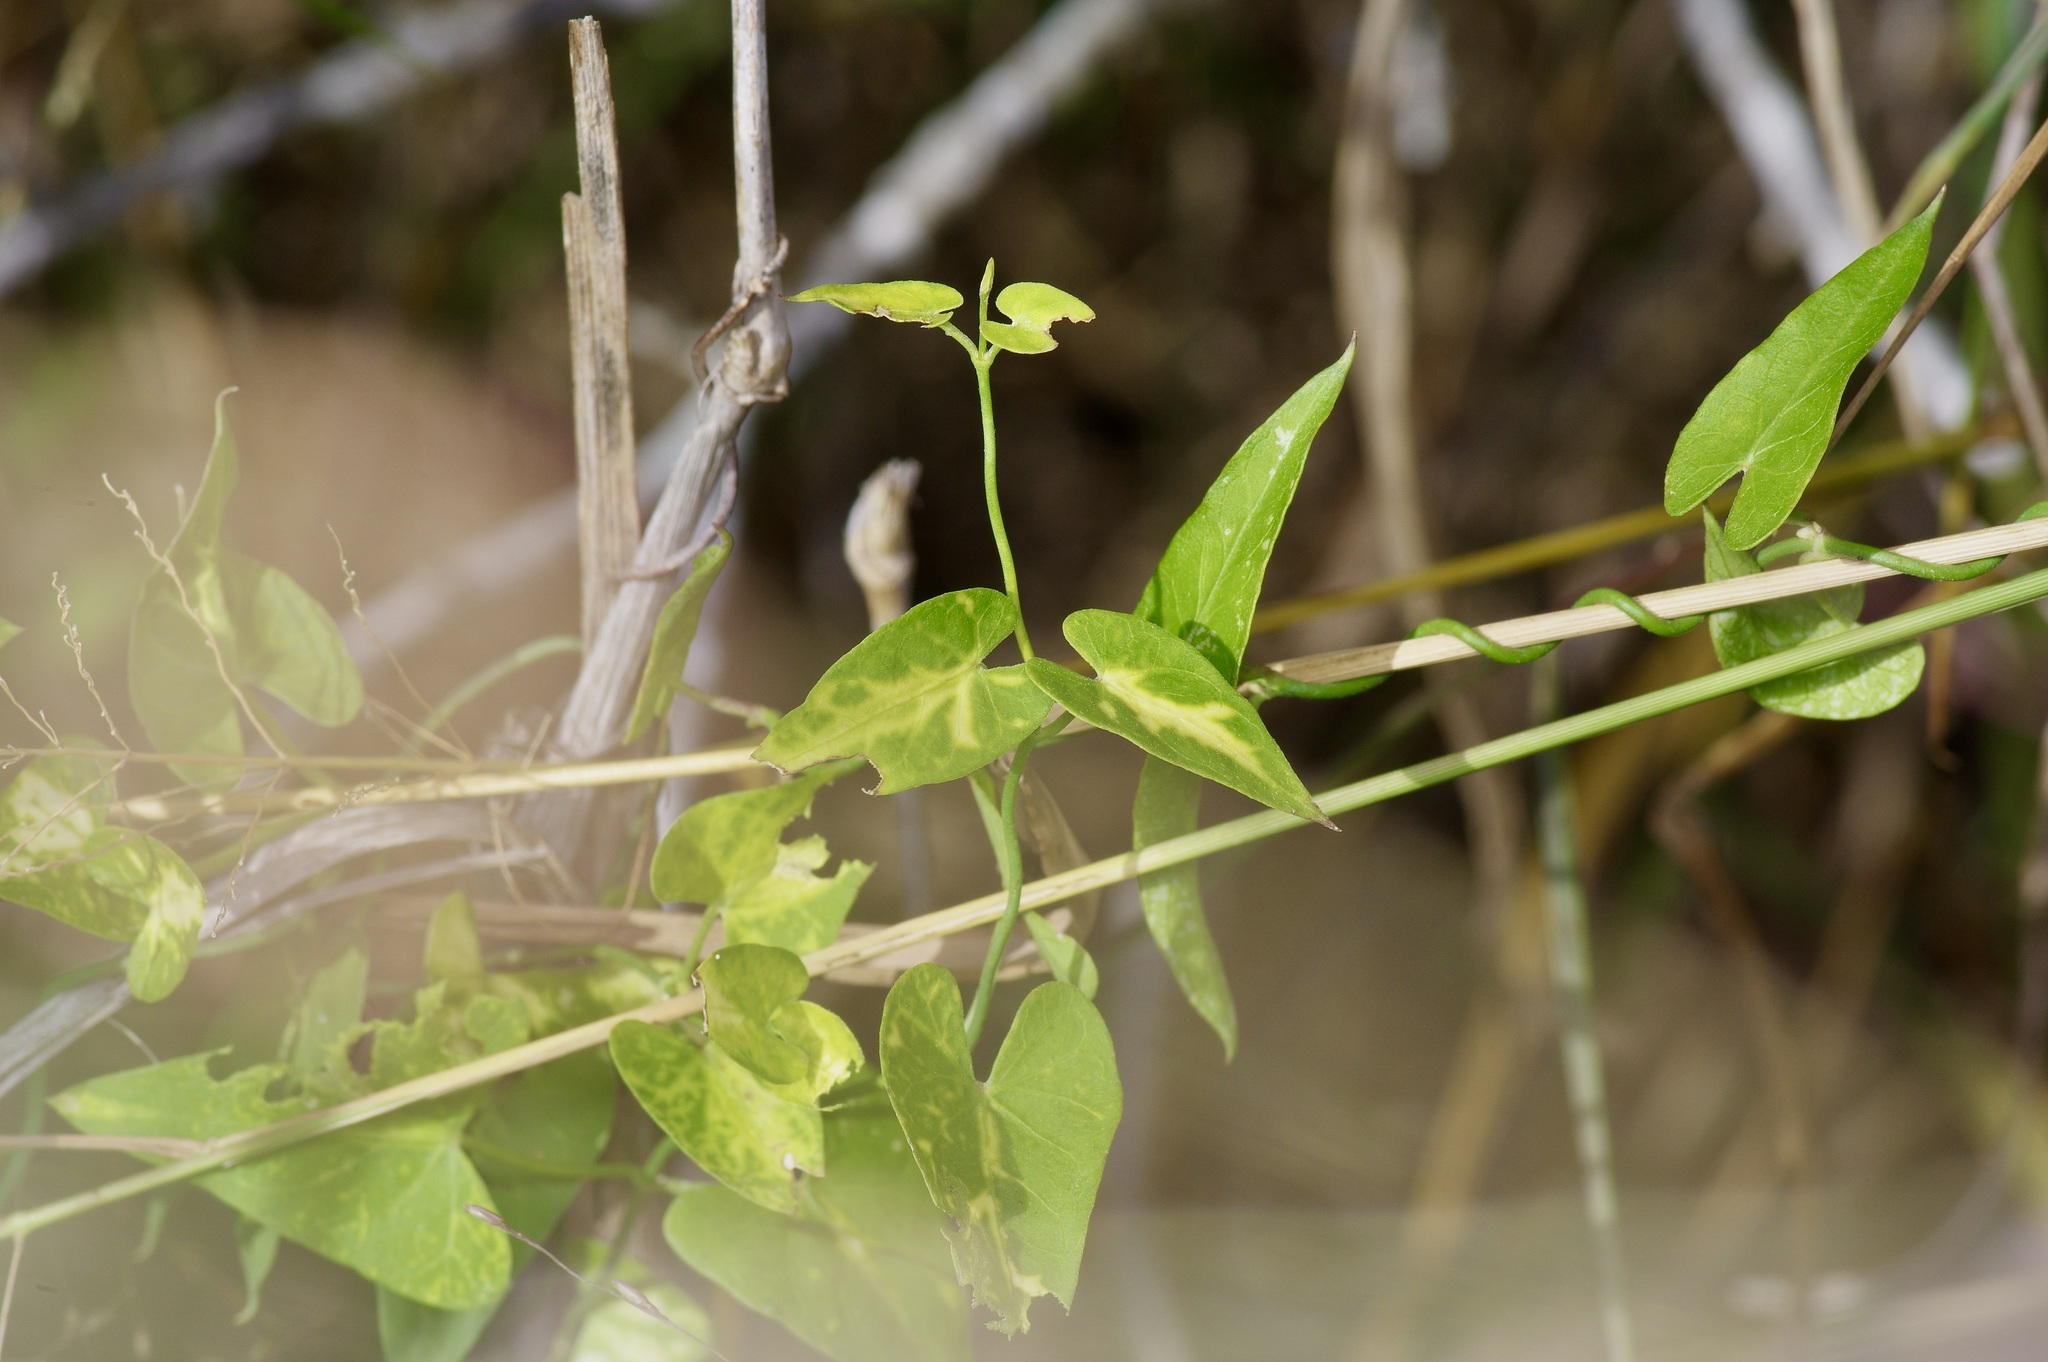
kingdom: Plantae
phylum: Tracheophyta
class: Magnoliopsida
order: Gentianales
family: Apocynaceae
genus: Funastrum
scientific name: Funastrum cynanchoides
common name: Climbing-milkweed
